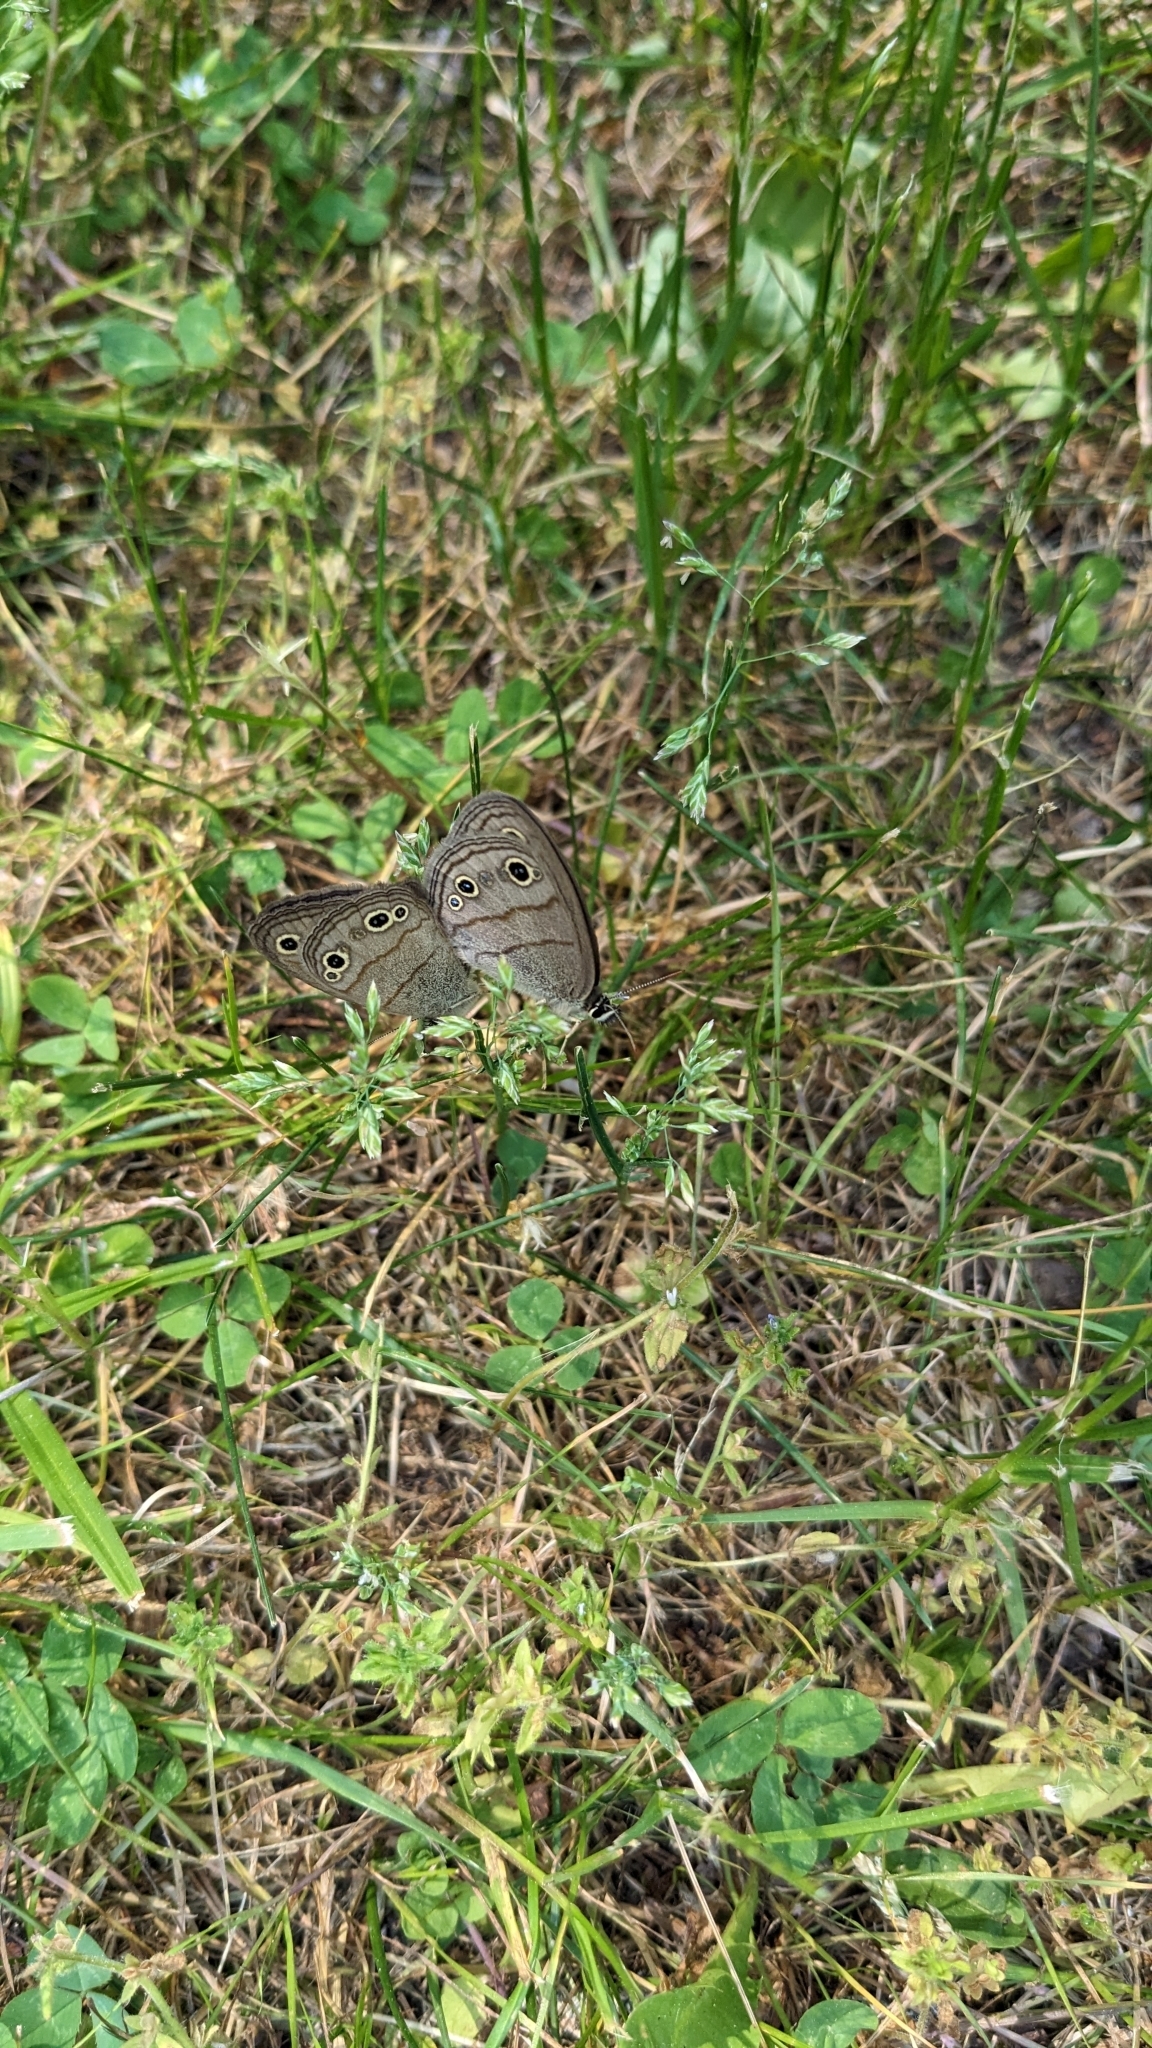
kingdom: Animalia
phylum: Arthropoda
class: Insecta
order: Lepidoptera
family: Nymphalidae
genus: Euptychia
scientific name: Euptychia cymela
